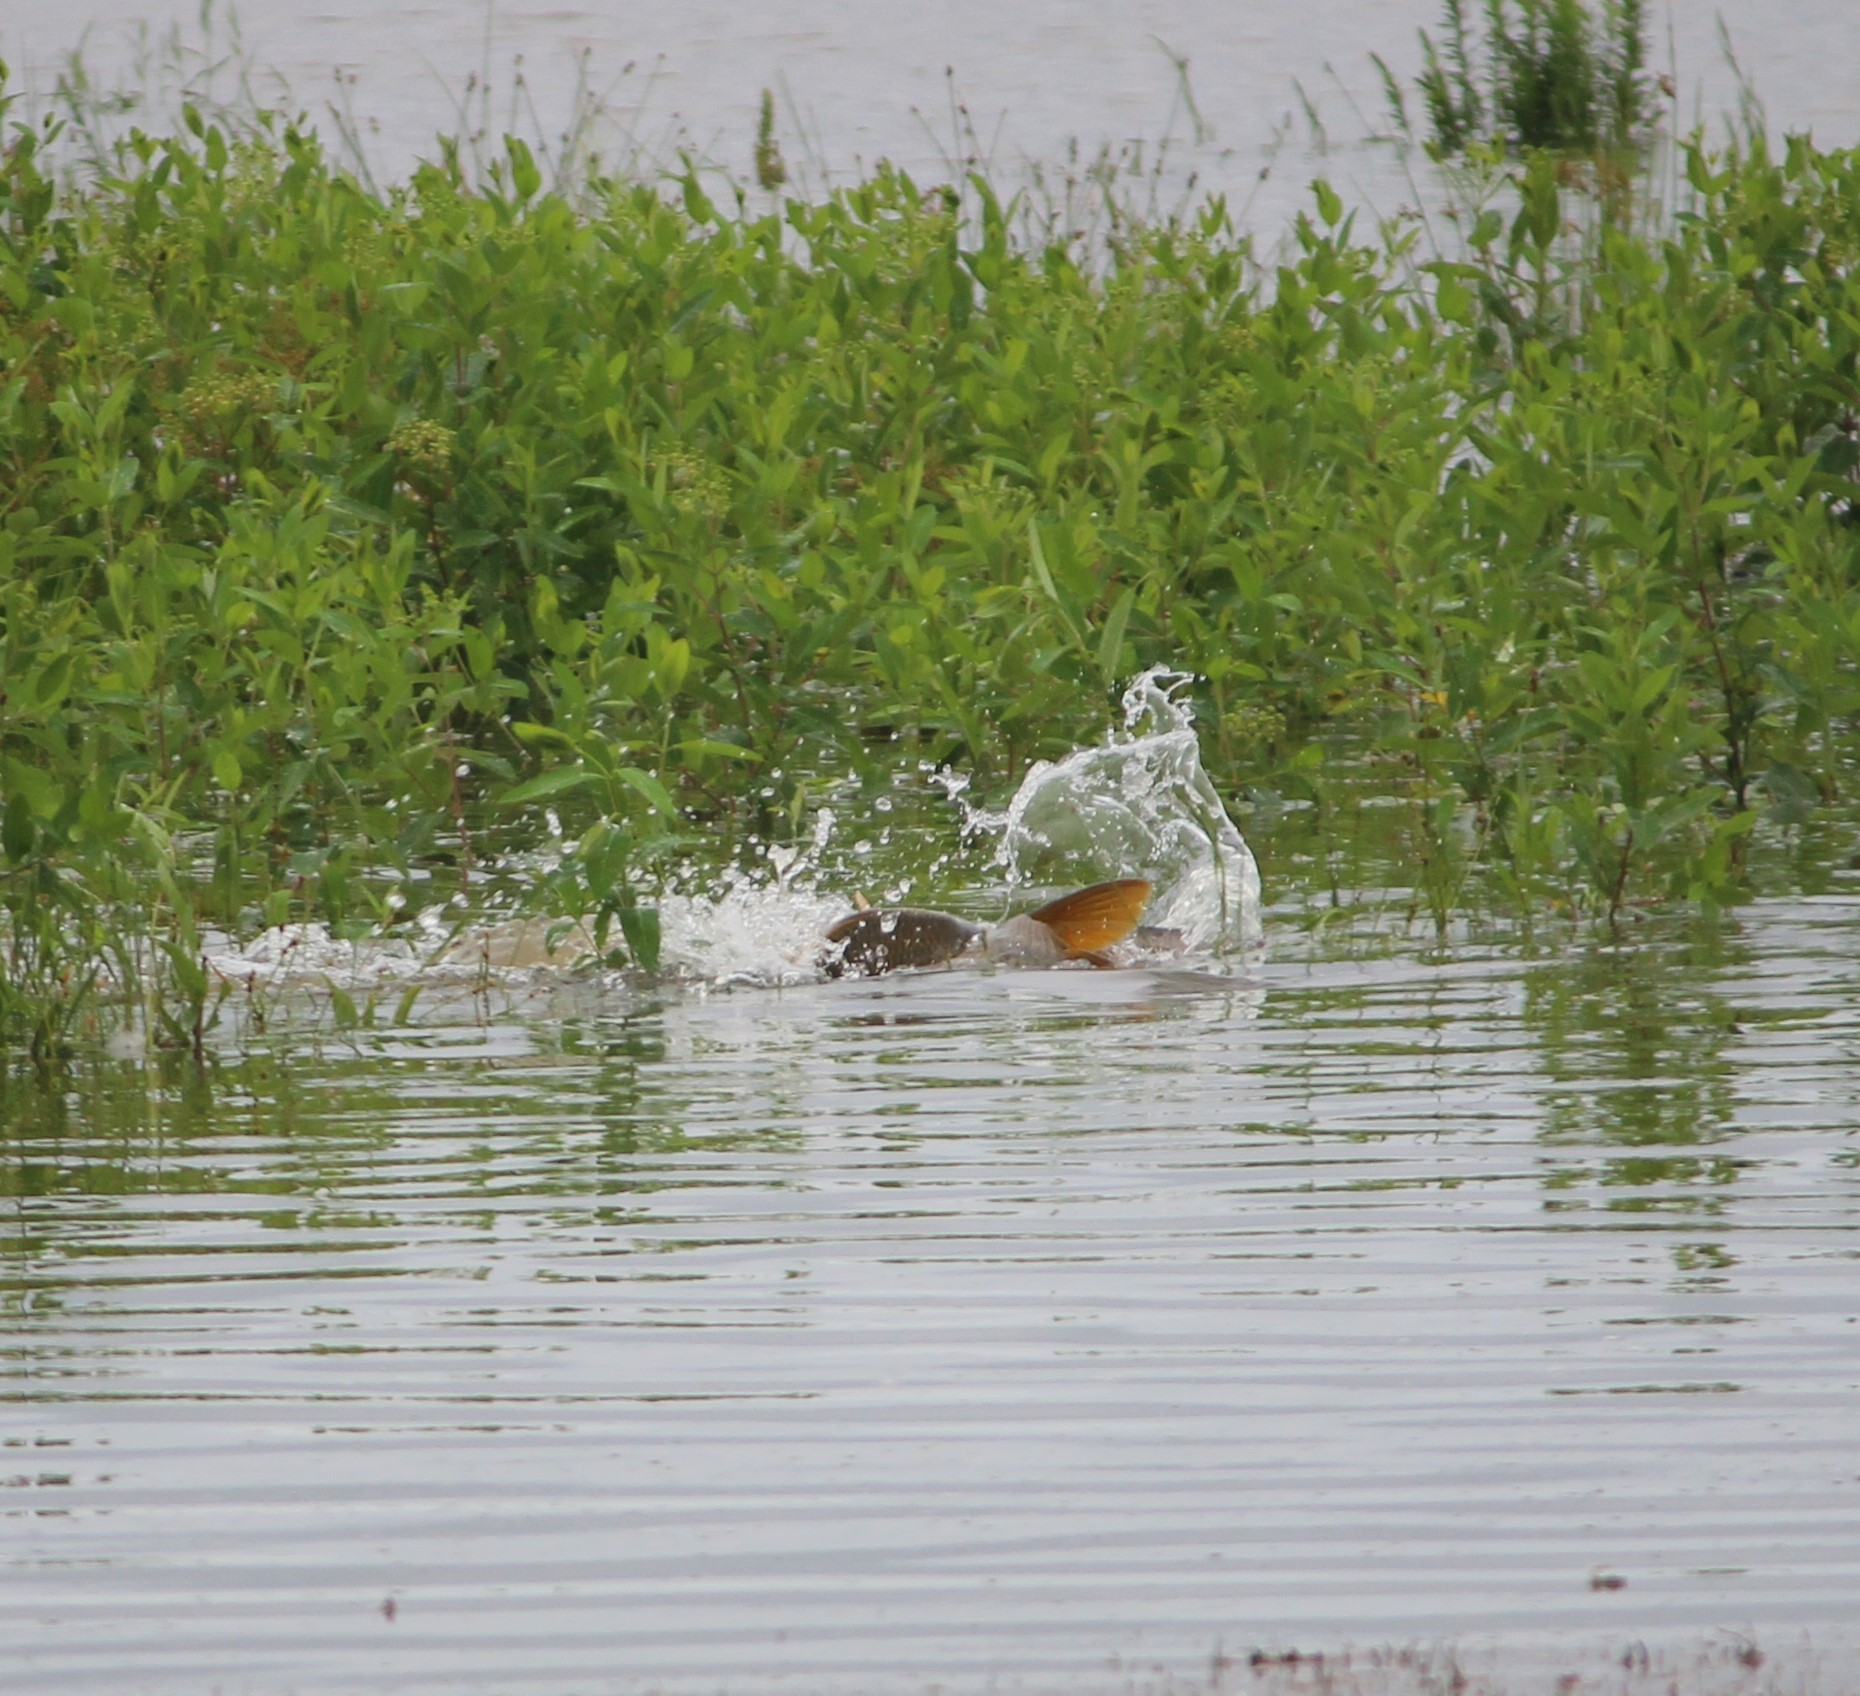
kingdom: Animalia
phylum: Chordata
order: Cypriniformes
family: Cyprinidae
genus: Cyprinus
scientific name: Cyprinus carpio
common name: Common carp
